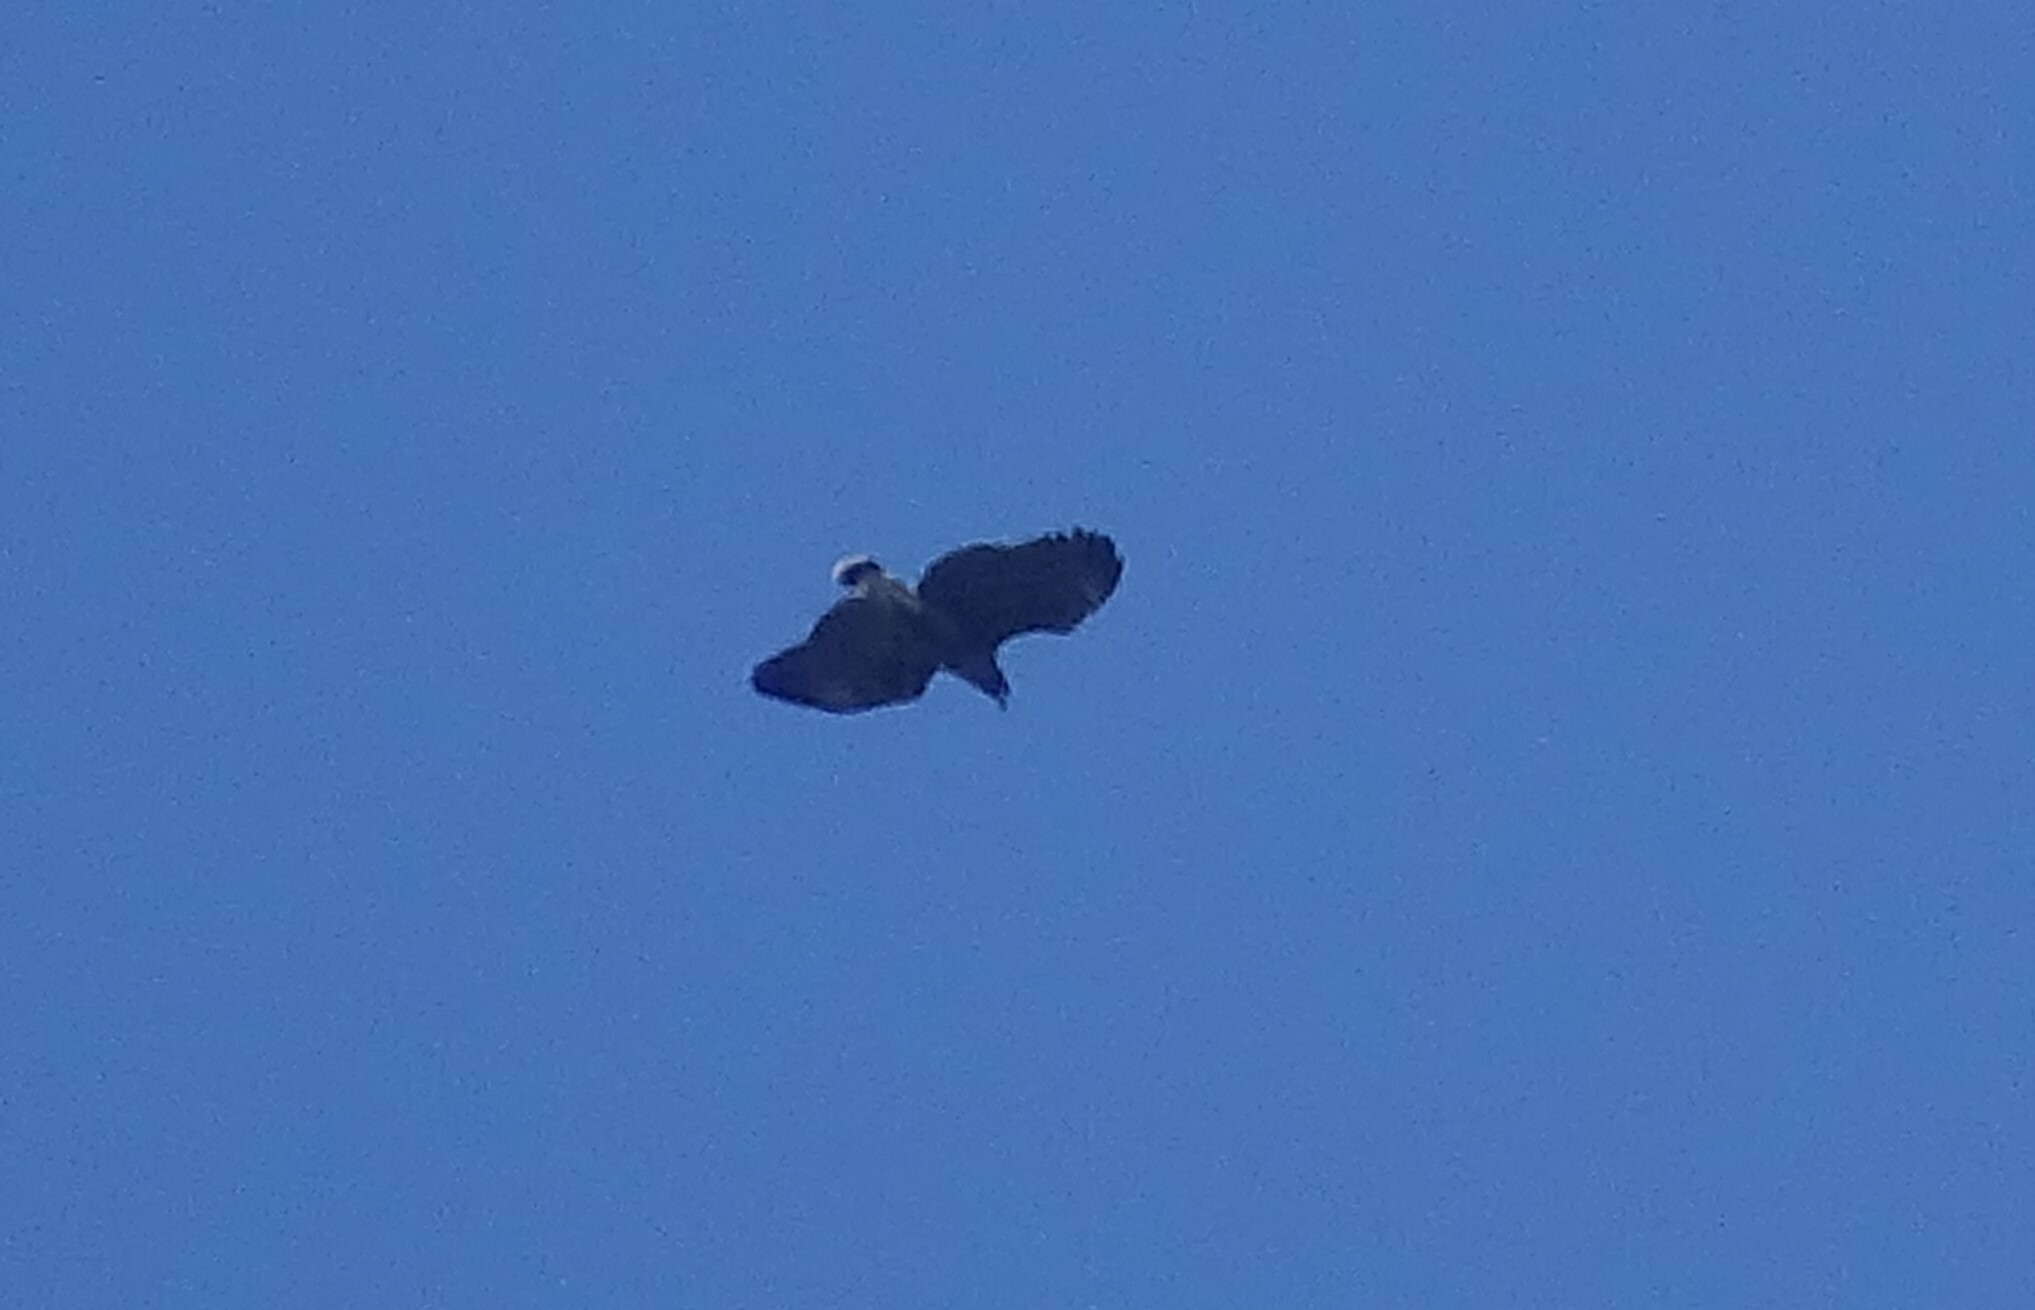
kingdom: Animalia
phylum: Chordata
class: Aves
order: Accipitriformes
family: Accipitridae
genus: Buteogallus
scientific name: Buteogallus anthracinus
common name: Common black hawk
